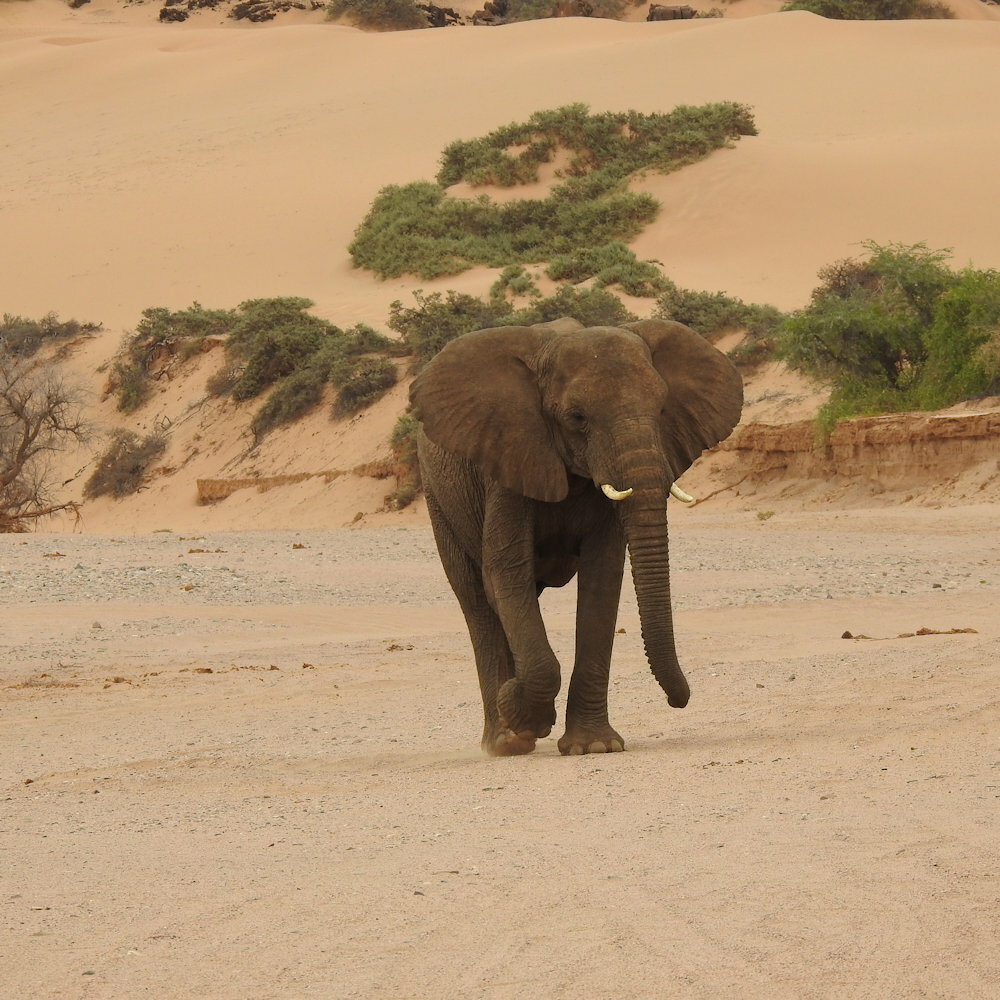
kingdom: Animalia
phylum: Chordata
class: Mammalia
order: Proboscidea
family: Elephantidae
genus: Loxodonta
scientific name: Loxodonta africana
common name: African elephant
